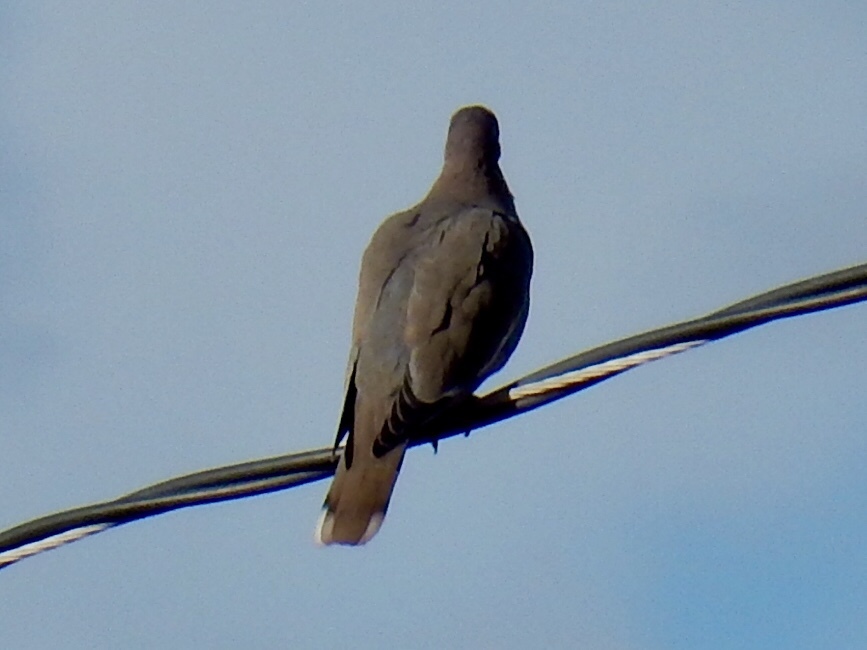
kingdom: Animalia
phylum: Chordata
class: Aves
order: Columbiformes
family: Columbidae
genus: Zenaida
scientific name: Zenaida asiatica
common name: White-winged dove
